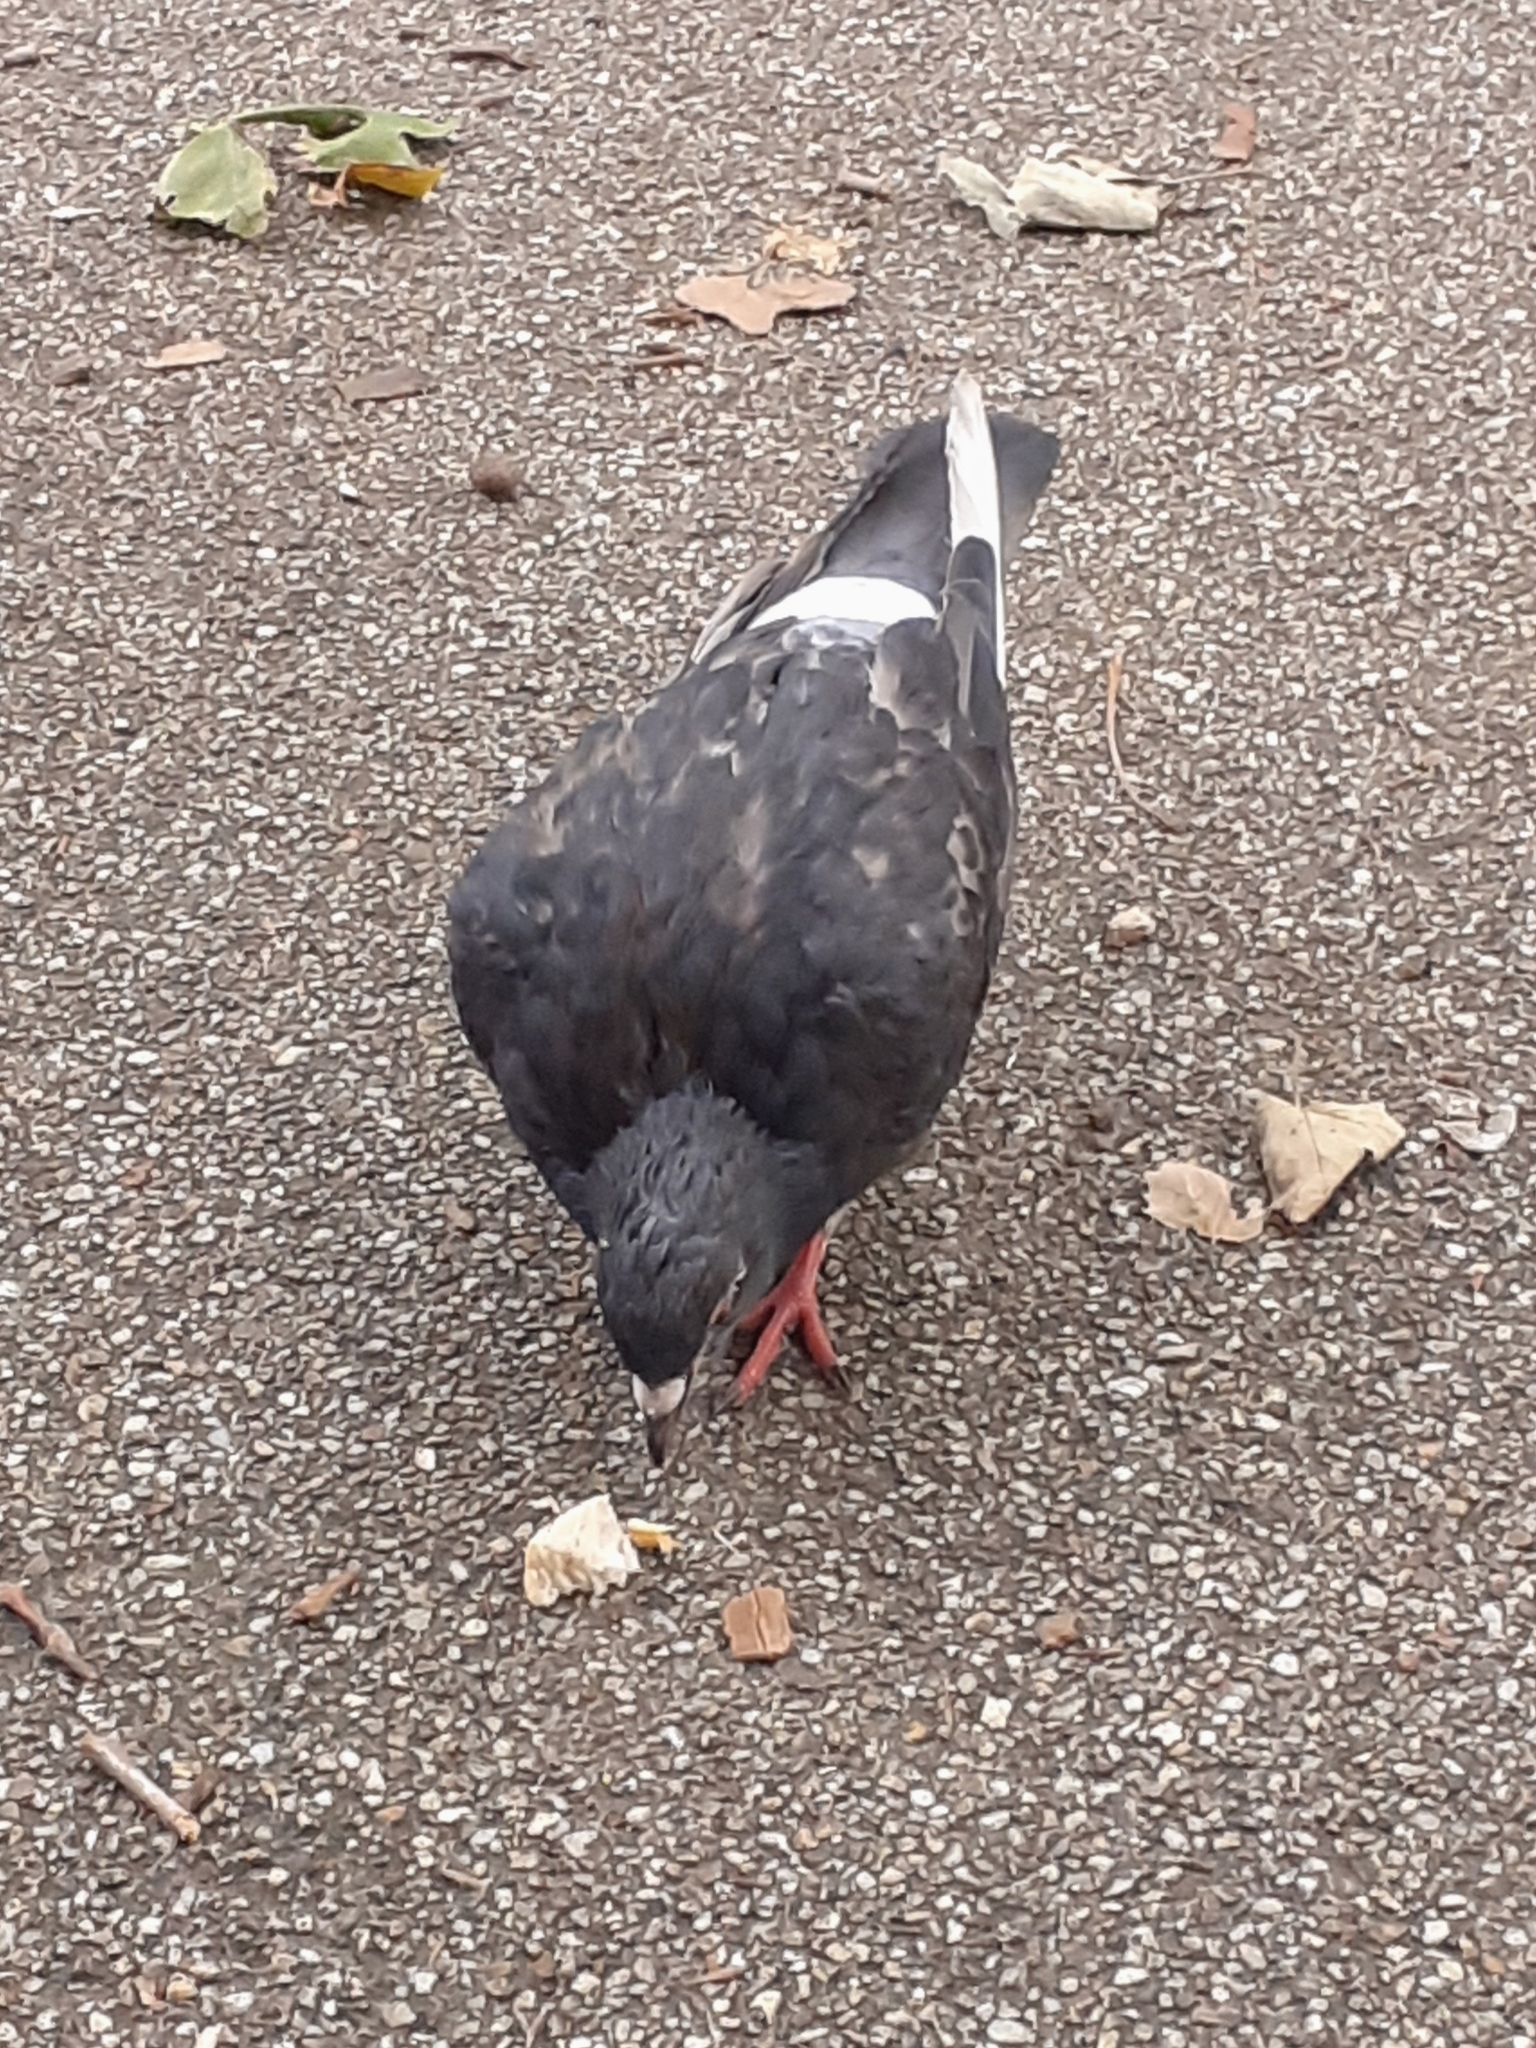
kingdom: Animalia
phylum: Chordata
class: Aves
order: Columbiformes
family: Columbidae
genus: Columba
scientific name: Columba livia
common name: Rock pigeon
